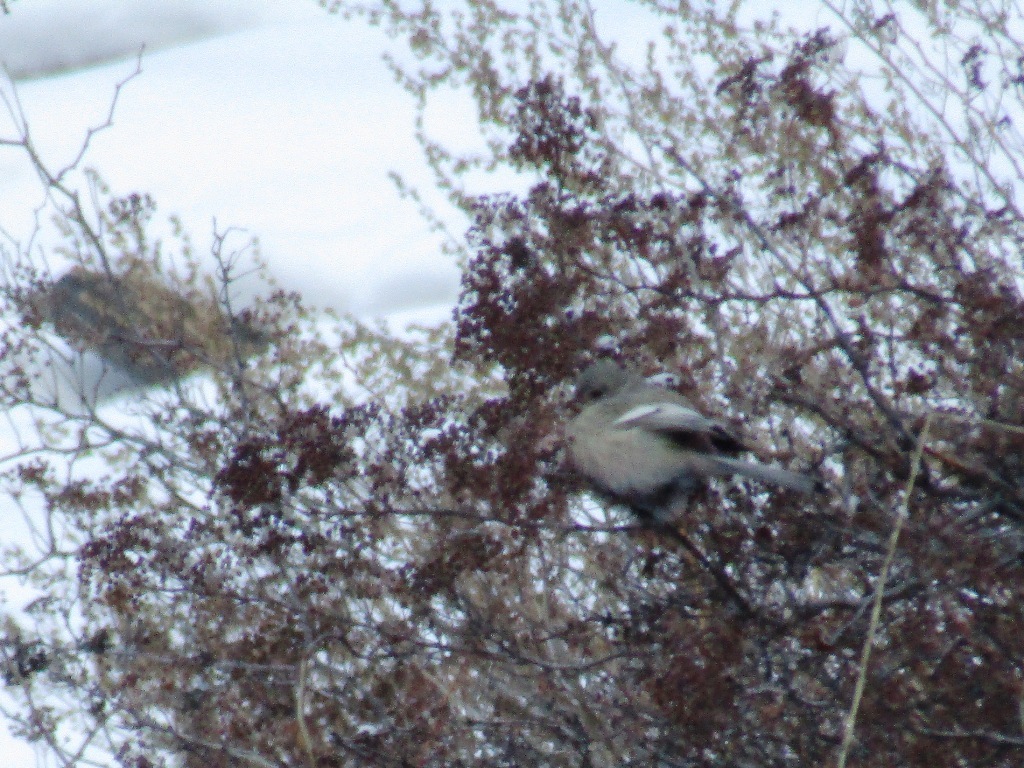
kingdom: Animalia
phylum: Chordata
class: Aves
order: Passeriformes
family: Fringillidae
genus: Carpodacus
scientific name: Carpodacus sibiricus
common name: Long-tailed rosefinch
